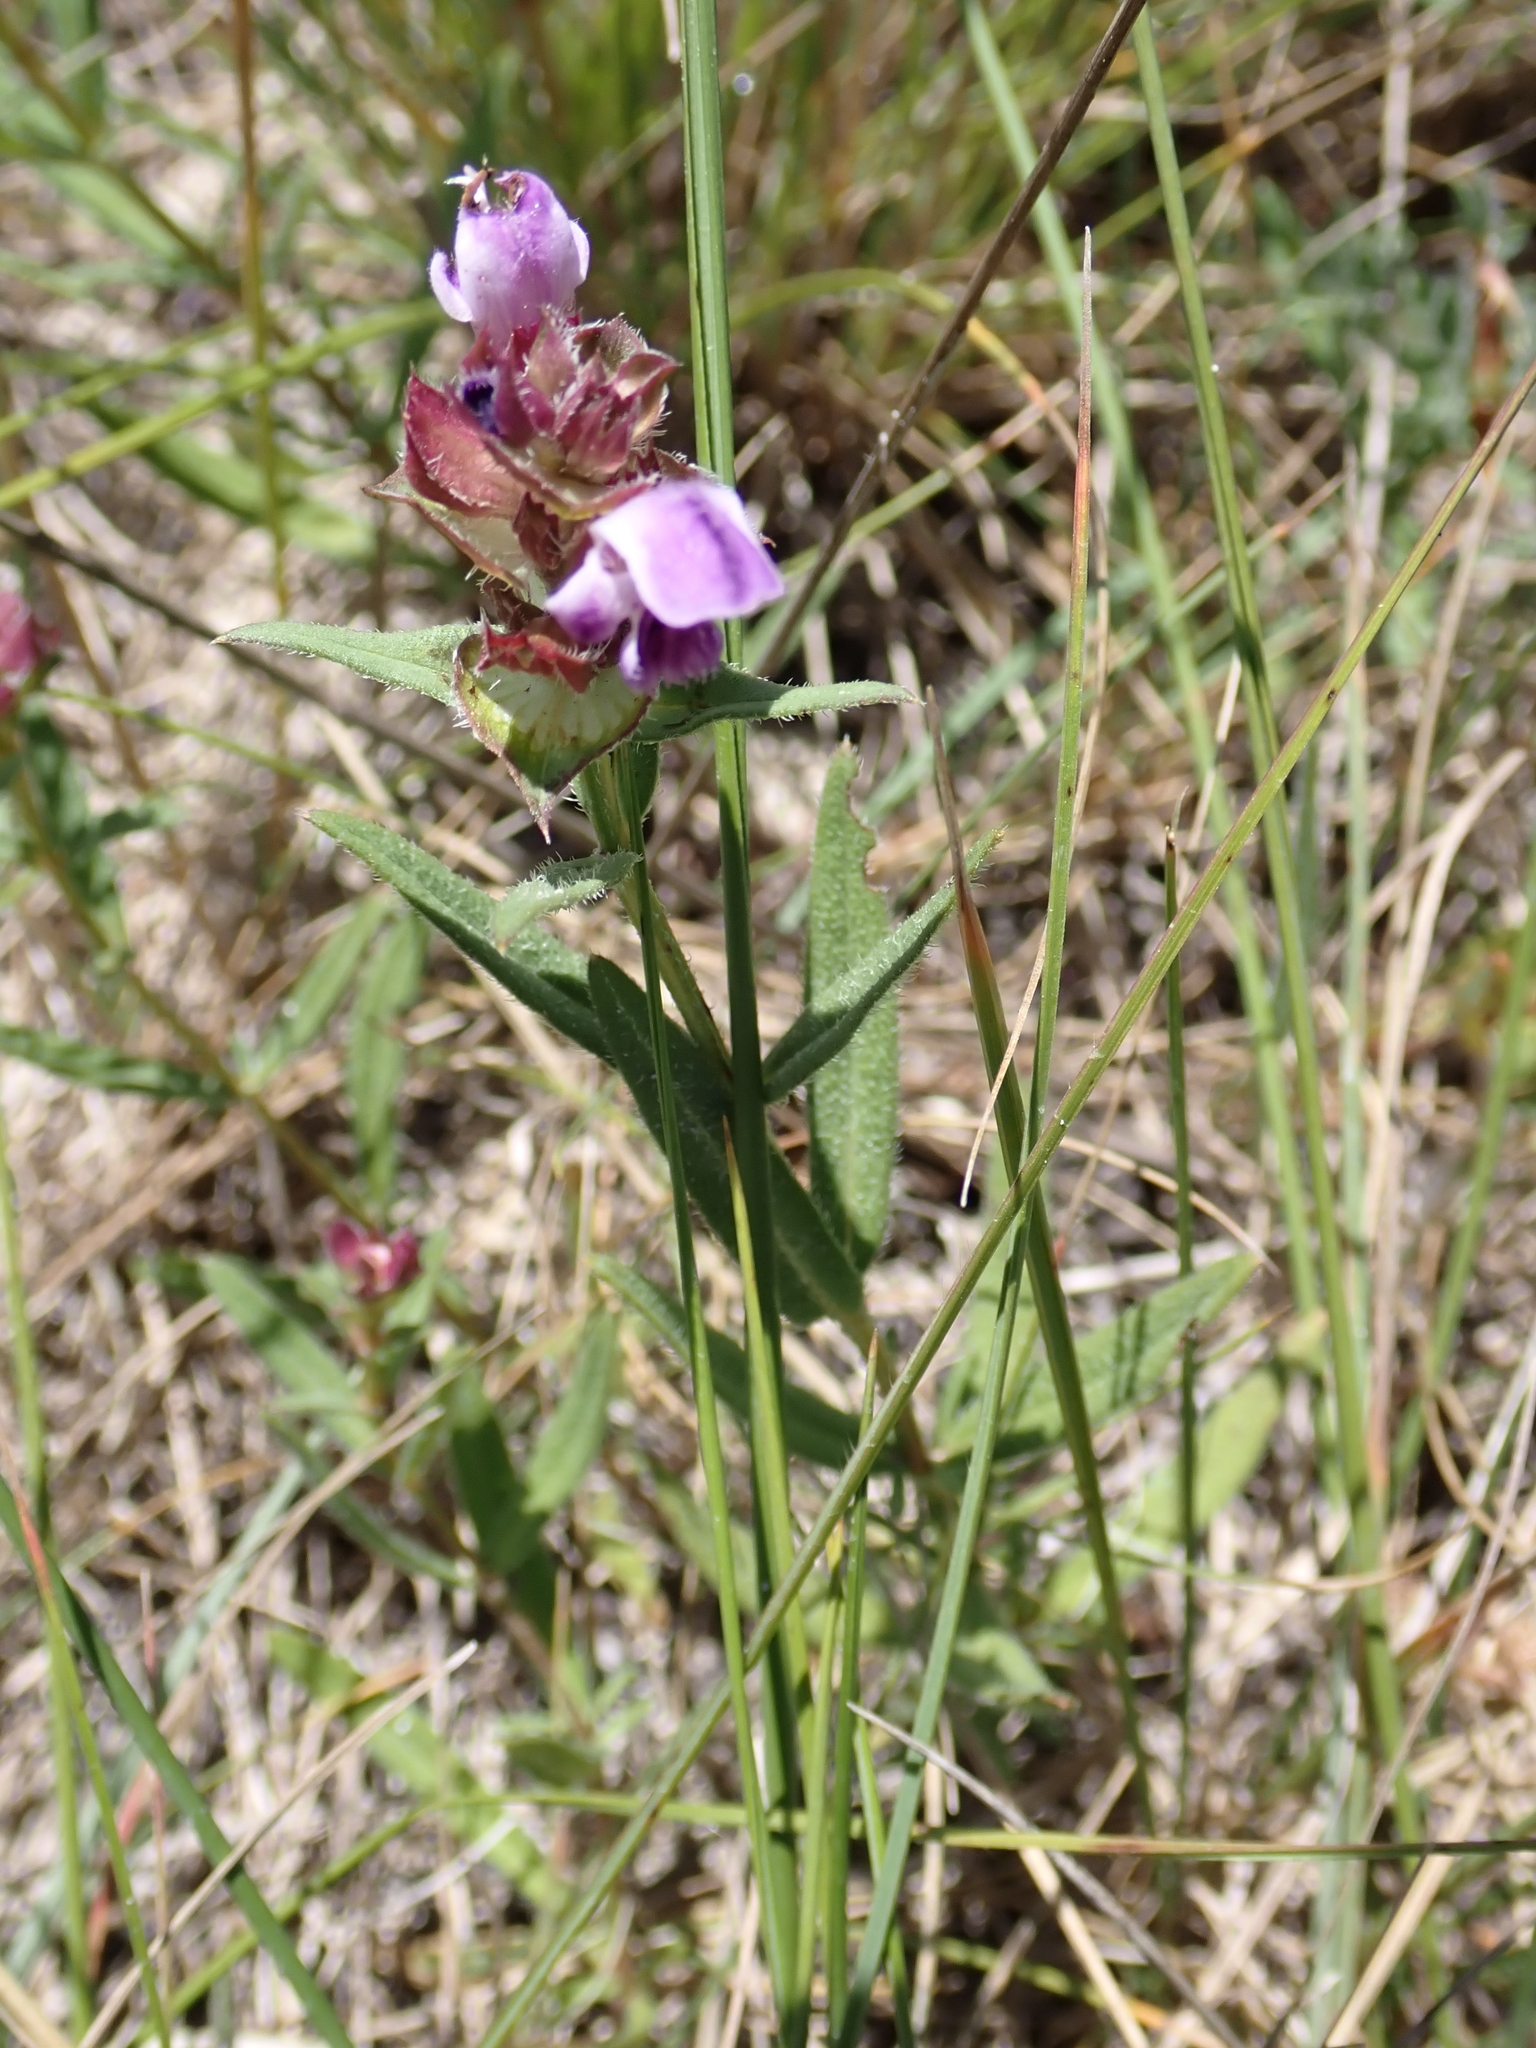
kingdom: Plantae
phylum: Tracheophyta
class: Magnoliopsida
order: Lamiales
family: Lamiaceae
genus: Prunella
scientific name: Prunella hyssopifolia
